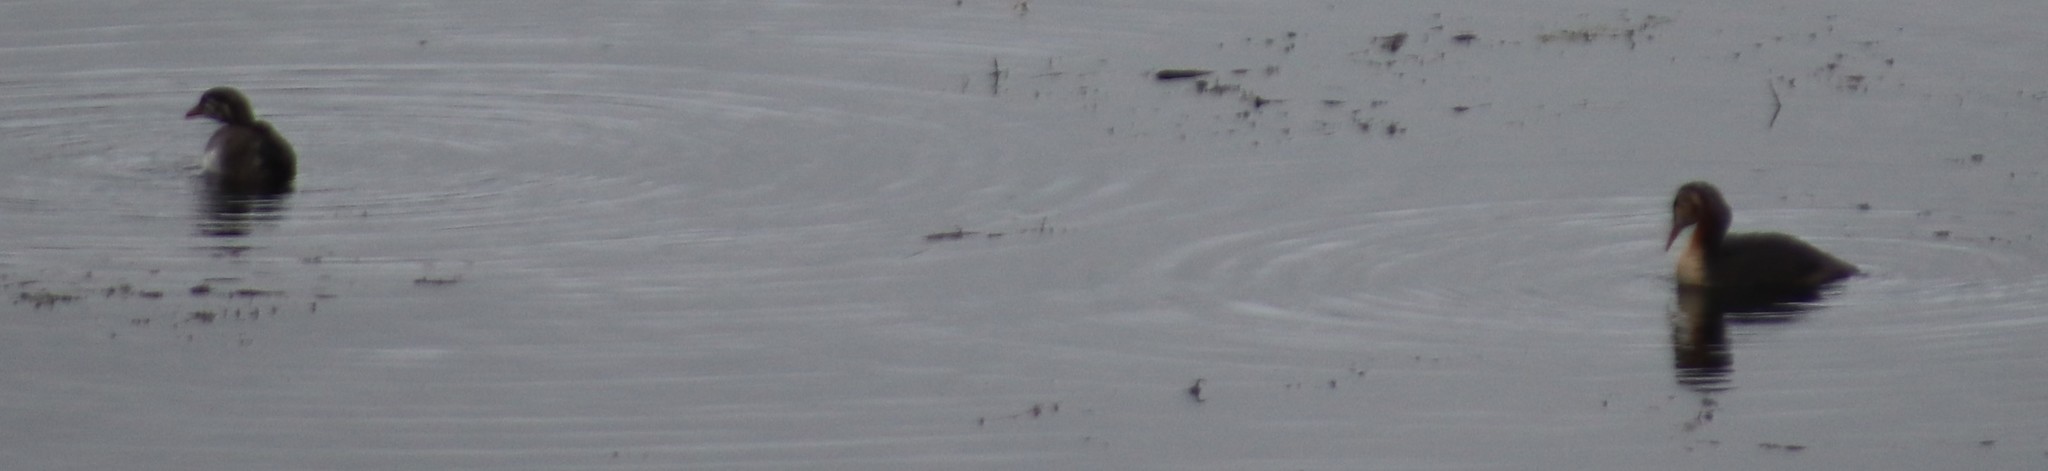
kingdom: Animalia
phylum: Chordata
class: Aves
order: Podicipediformes
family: Podicipedidae
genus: Podiceps
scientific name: Podiceps grisegena
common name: Red-necked grebe
